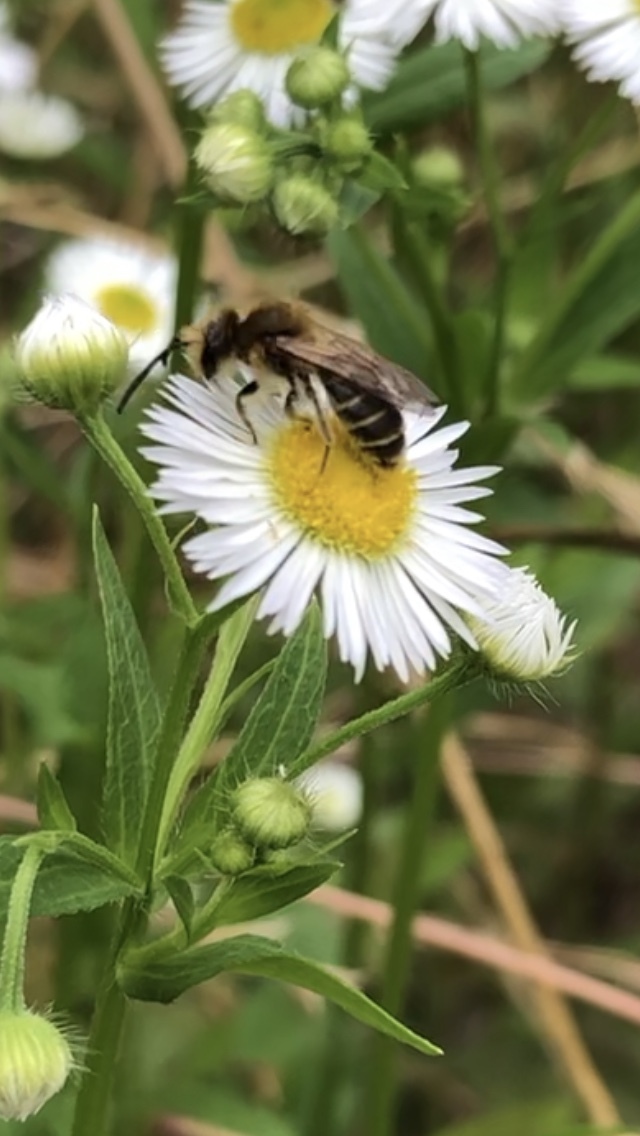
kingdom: Animalia
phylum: Arthropoda
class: Insecta
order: Hymenoptera
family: Andrenidae
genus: Andrena
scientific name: Andrena wilkella
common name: Wilke's mining bee
